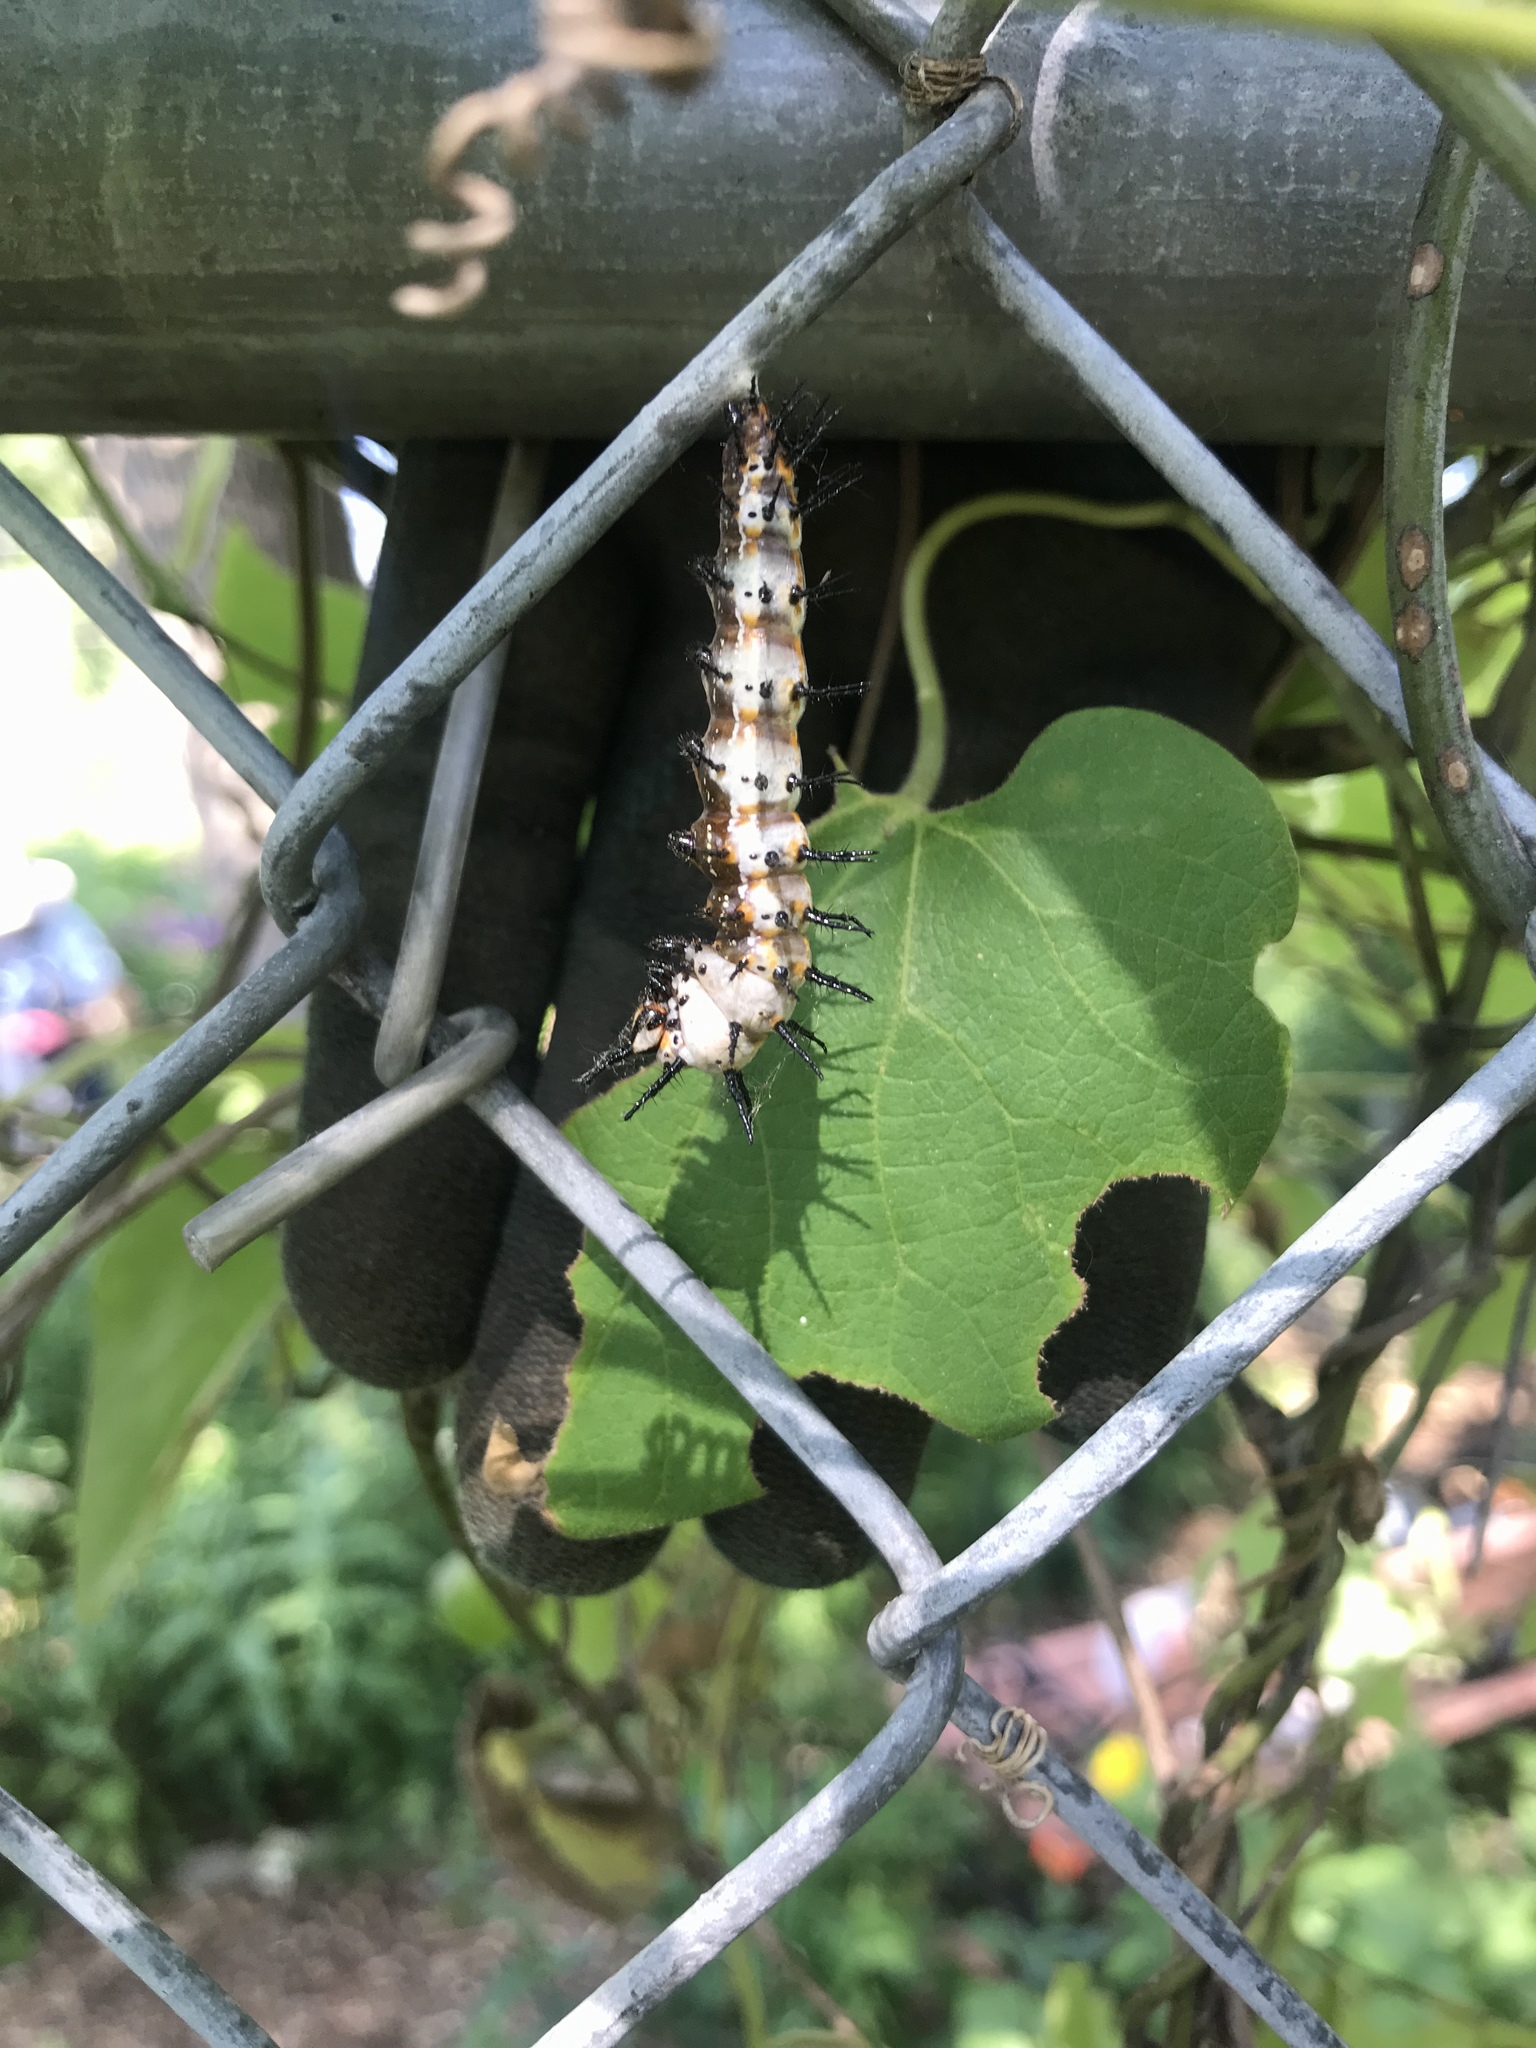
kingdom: Animalia
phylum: Arthropoda
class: Insecta
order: Lepidoptera
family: Nymphalidae
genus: Dione
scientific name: Dione vanillae
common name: Gulf fritillary
